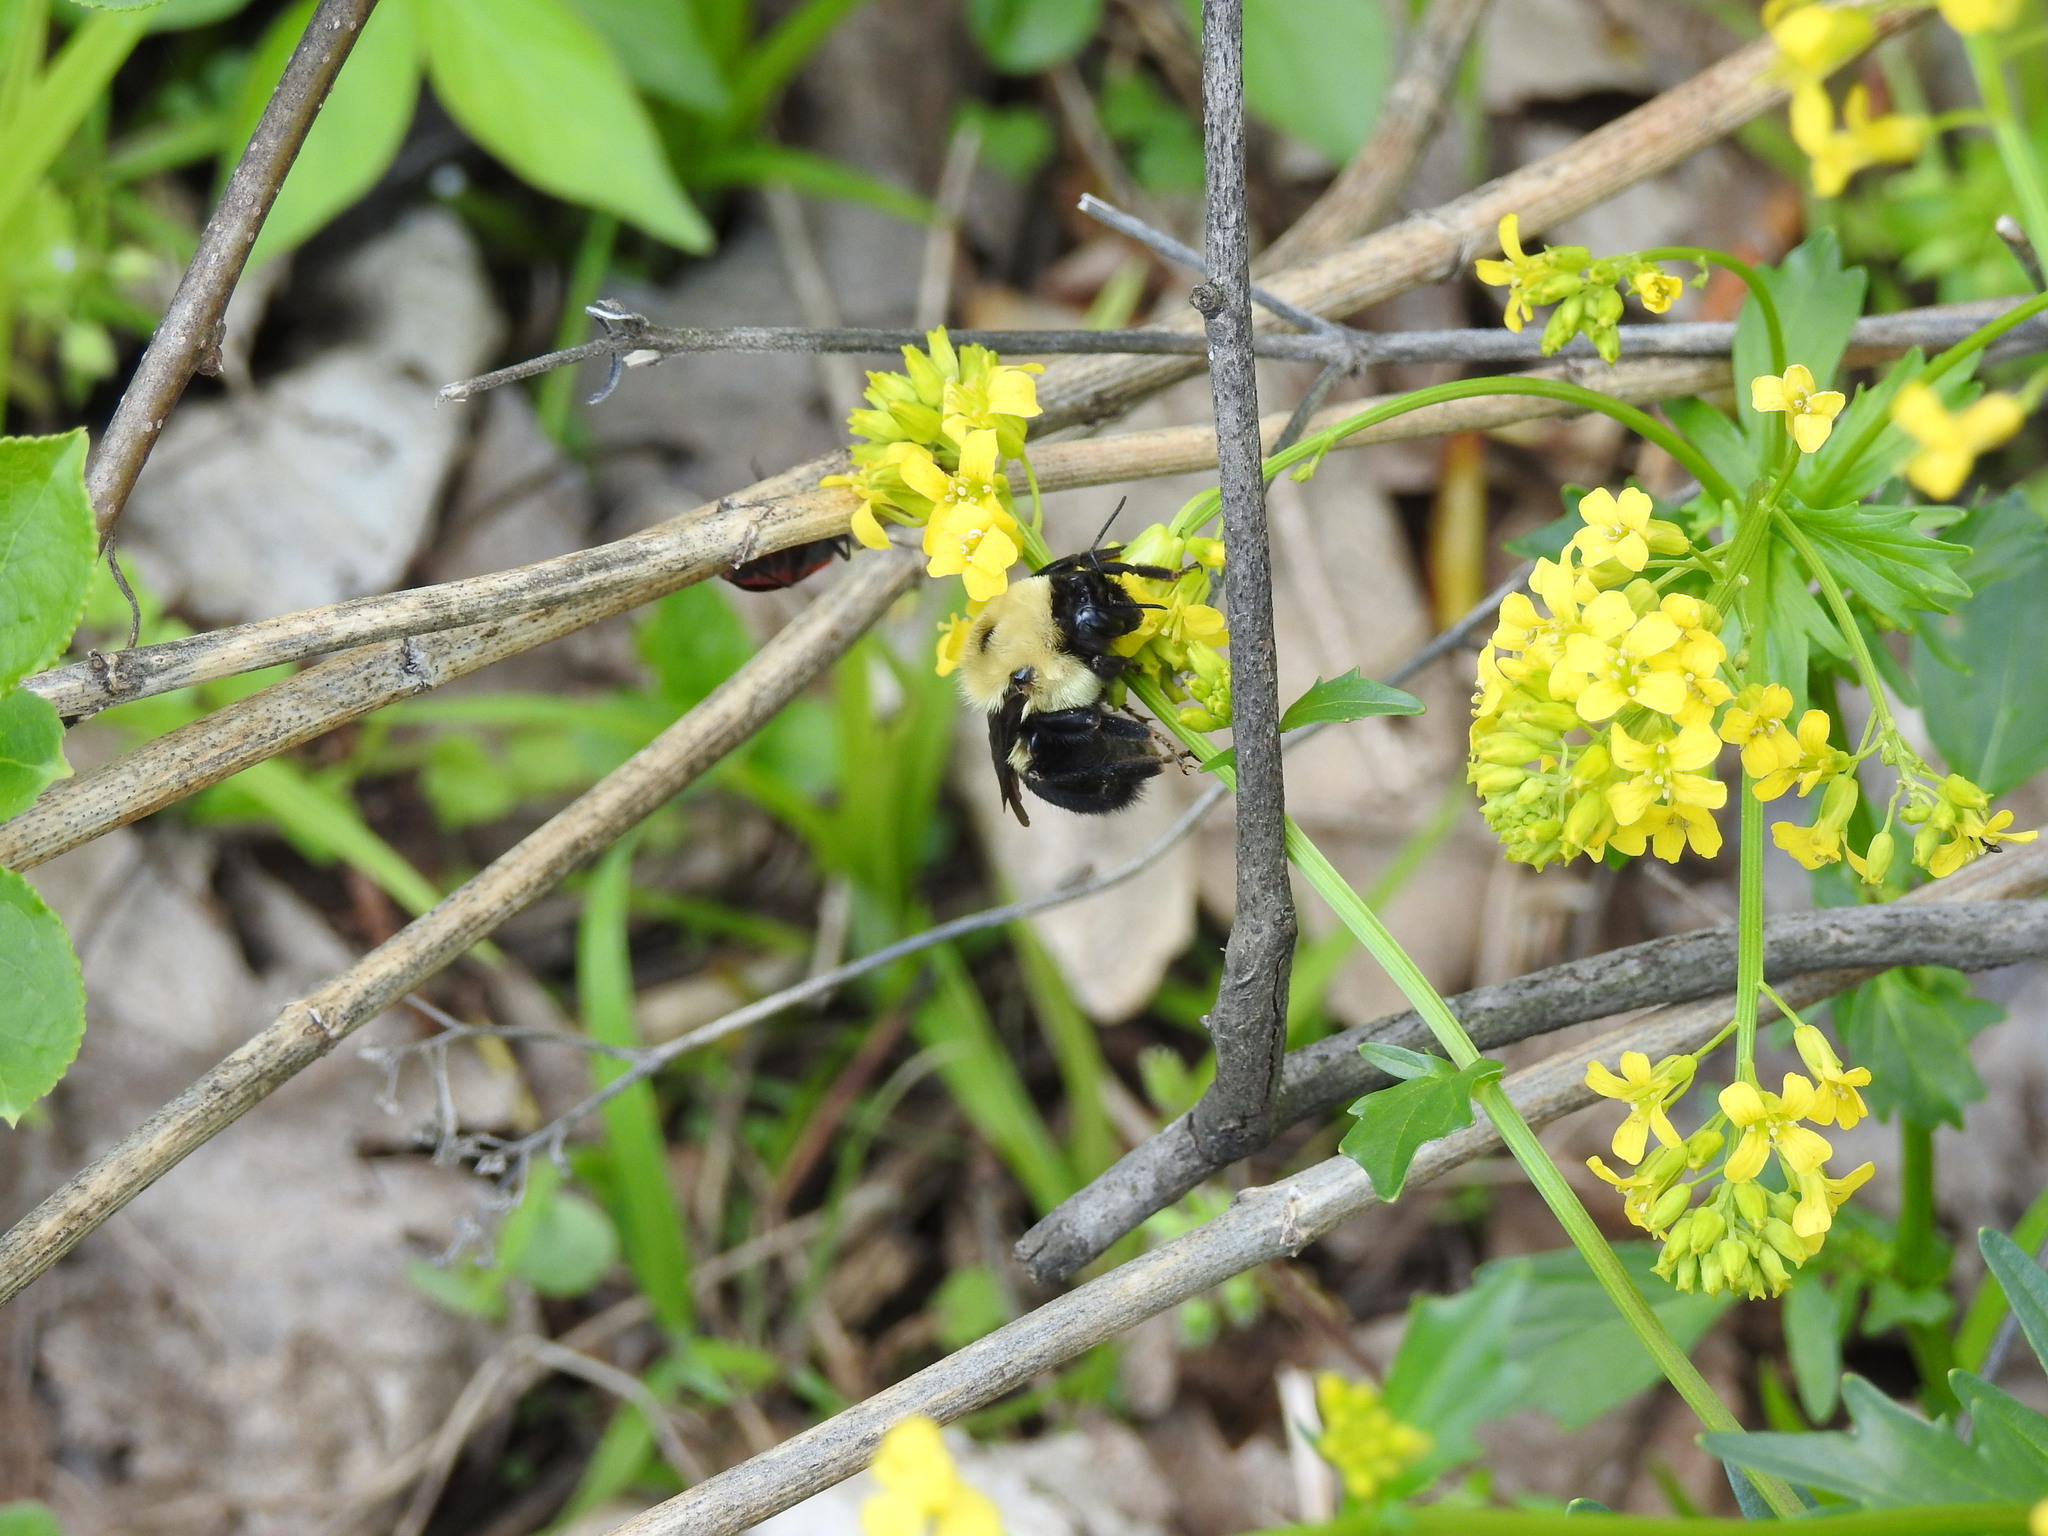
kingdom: Animalia
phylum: Arthropoda
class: Insecta
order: Hymenoptera
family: Apidae
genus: Bombus
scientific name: Bombus griseocollis
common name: Brown-belted bumble bee
